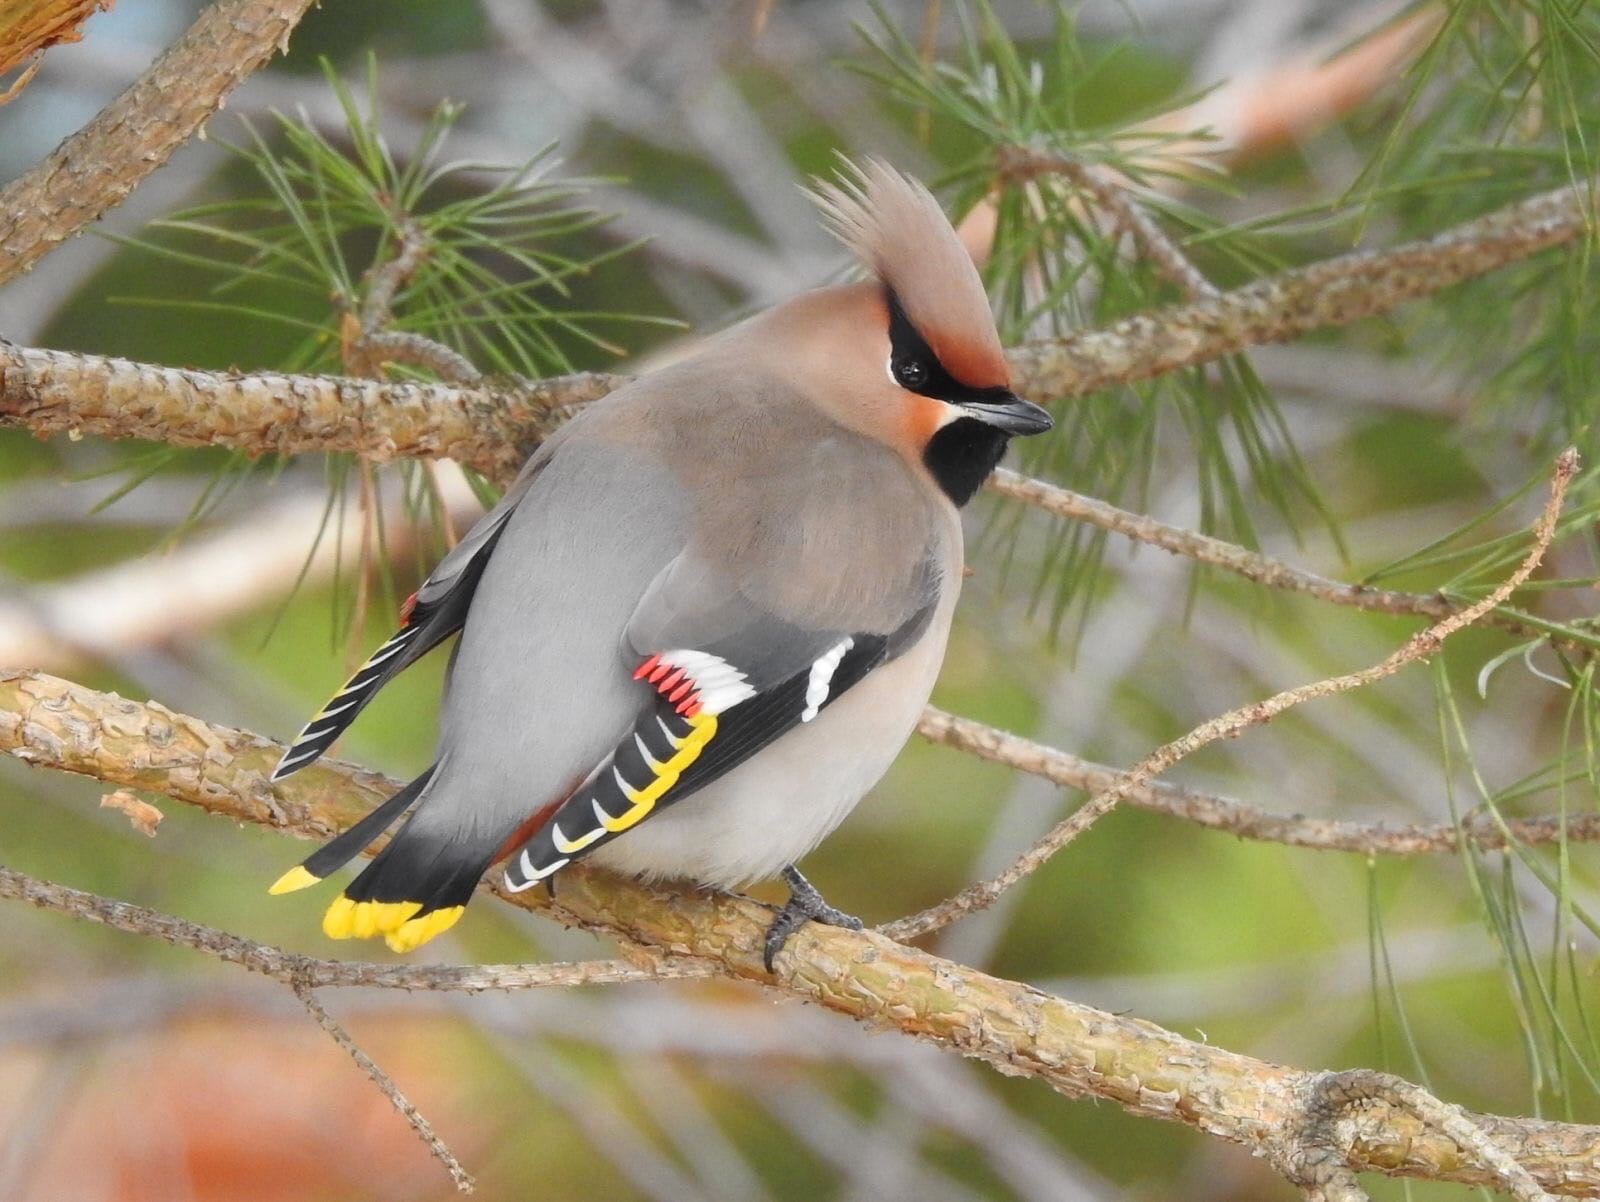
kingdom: Animalia
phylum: Chordata
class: Aves
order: Passeriformes
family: Bombycillidae
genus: Bombycilla
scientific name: Bombycilla garrulus
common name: Bohemian waxwing
